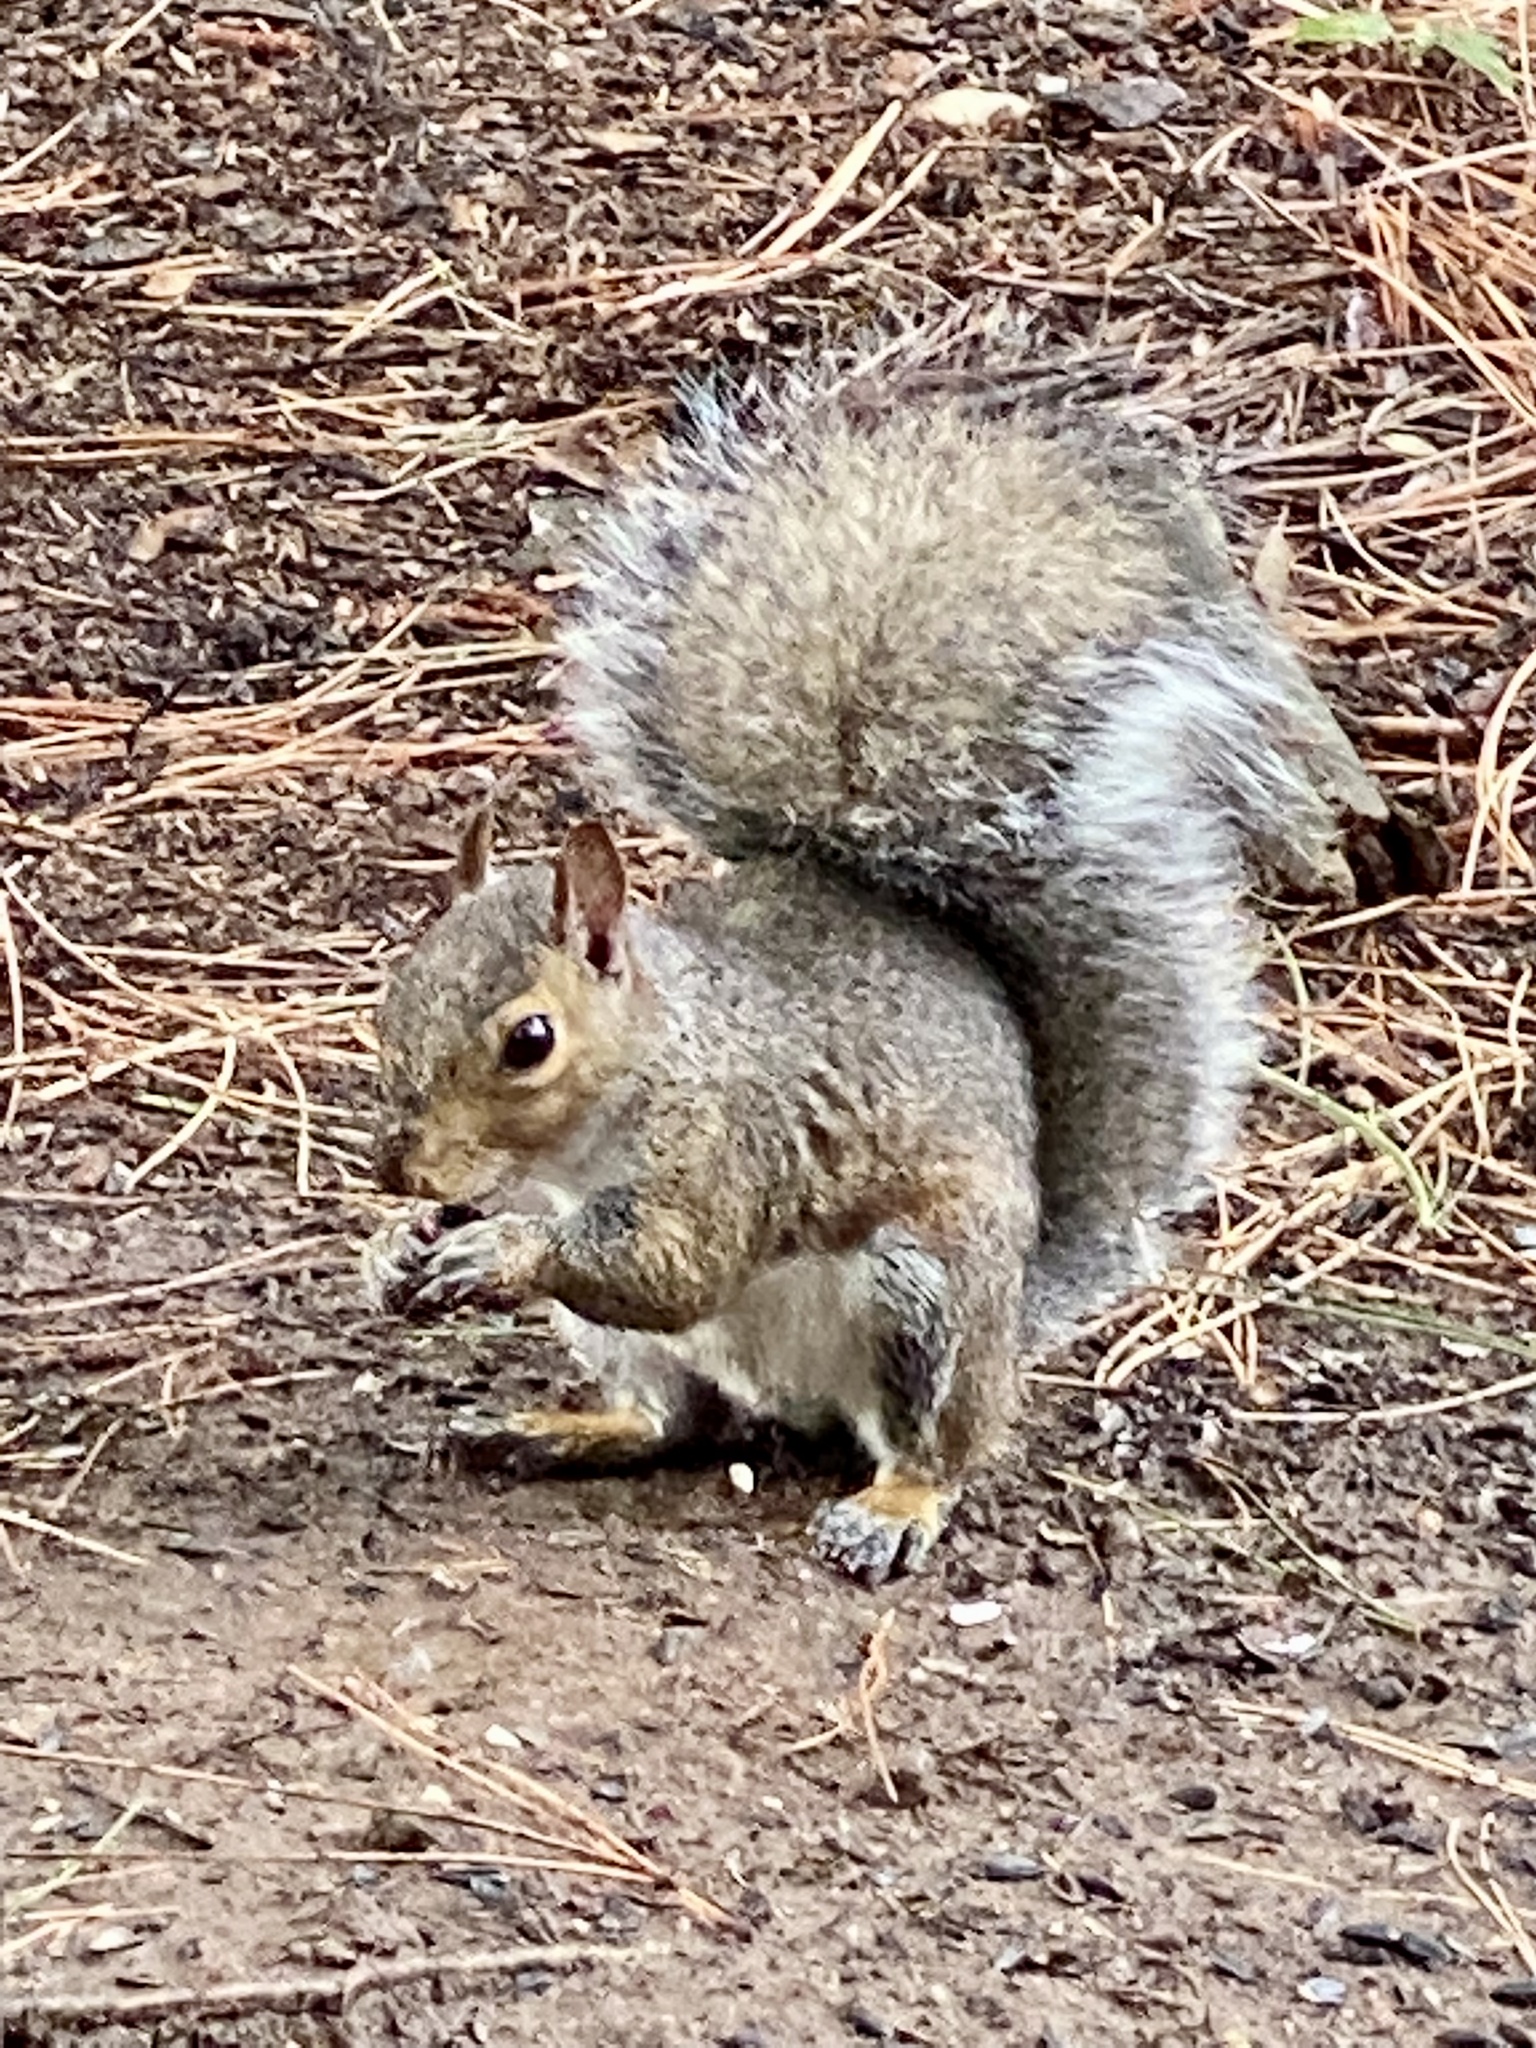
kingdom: Animalia
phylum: Chordata
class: Mammalia
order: Rodentia
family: Sciuridae
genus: Sciurus
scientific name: Sciurus carolinensis
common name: Eastern gray squirrel
